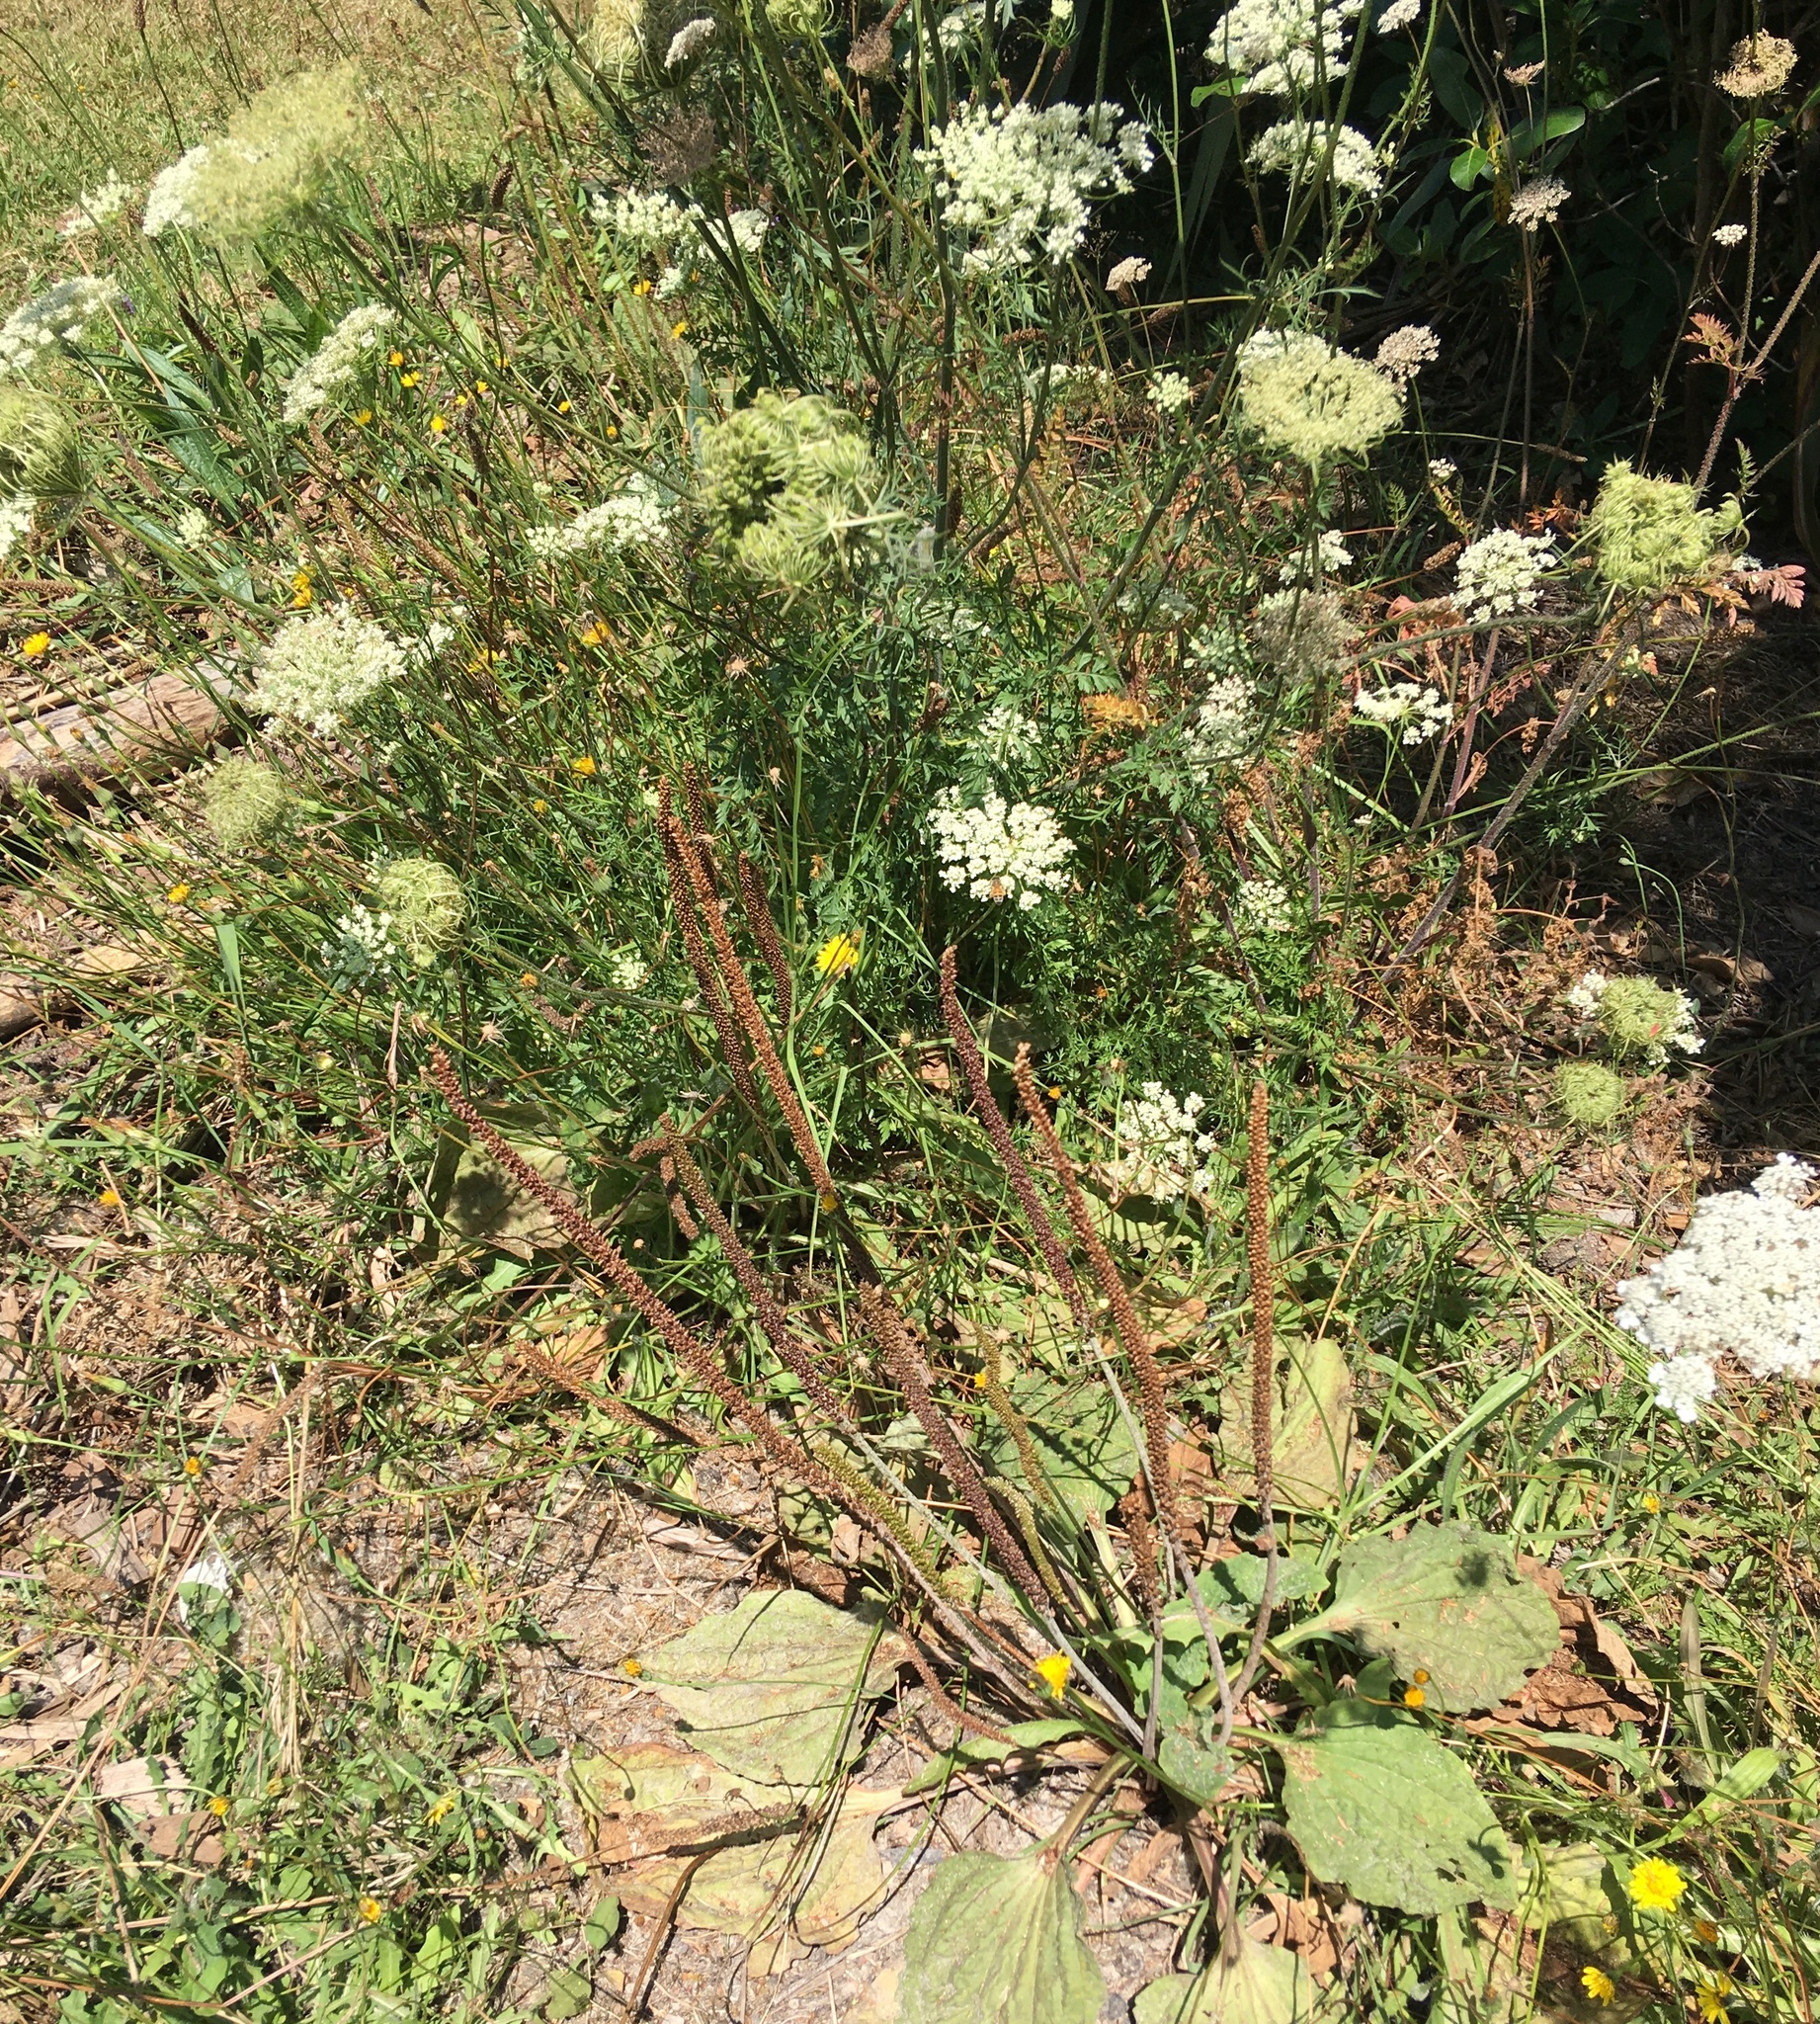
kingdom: Plantae
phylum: Tracheophyta
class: Magnoliopsida
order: Apiales
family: Apiaceae
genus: Daucus
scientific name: Daucus carota
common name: Wild carrot
